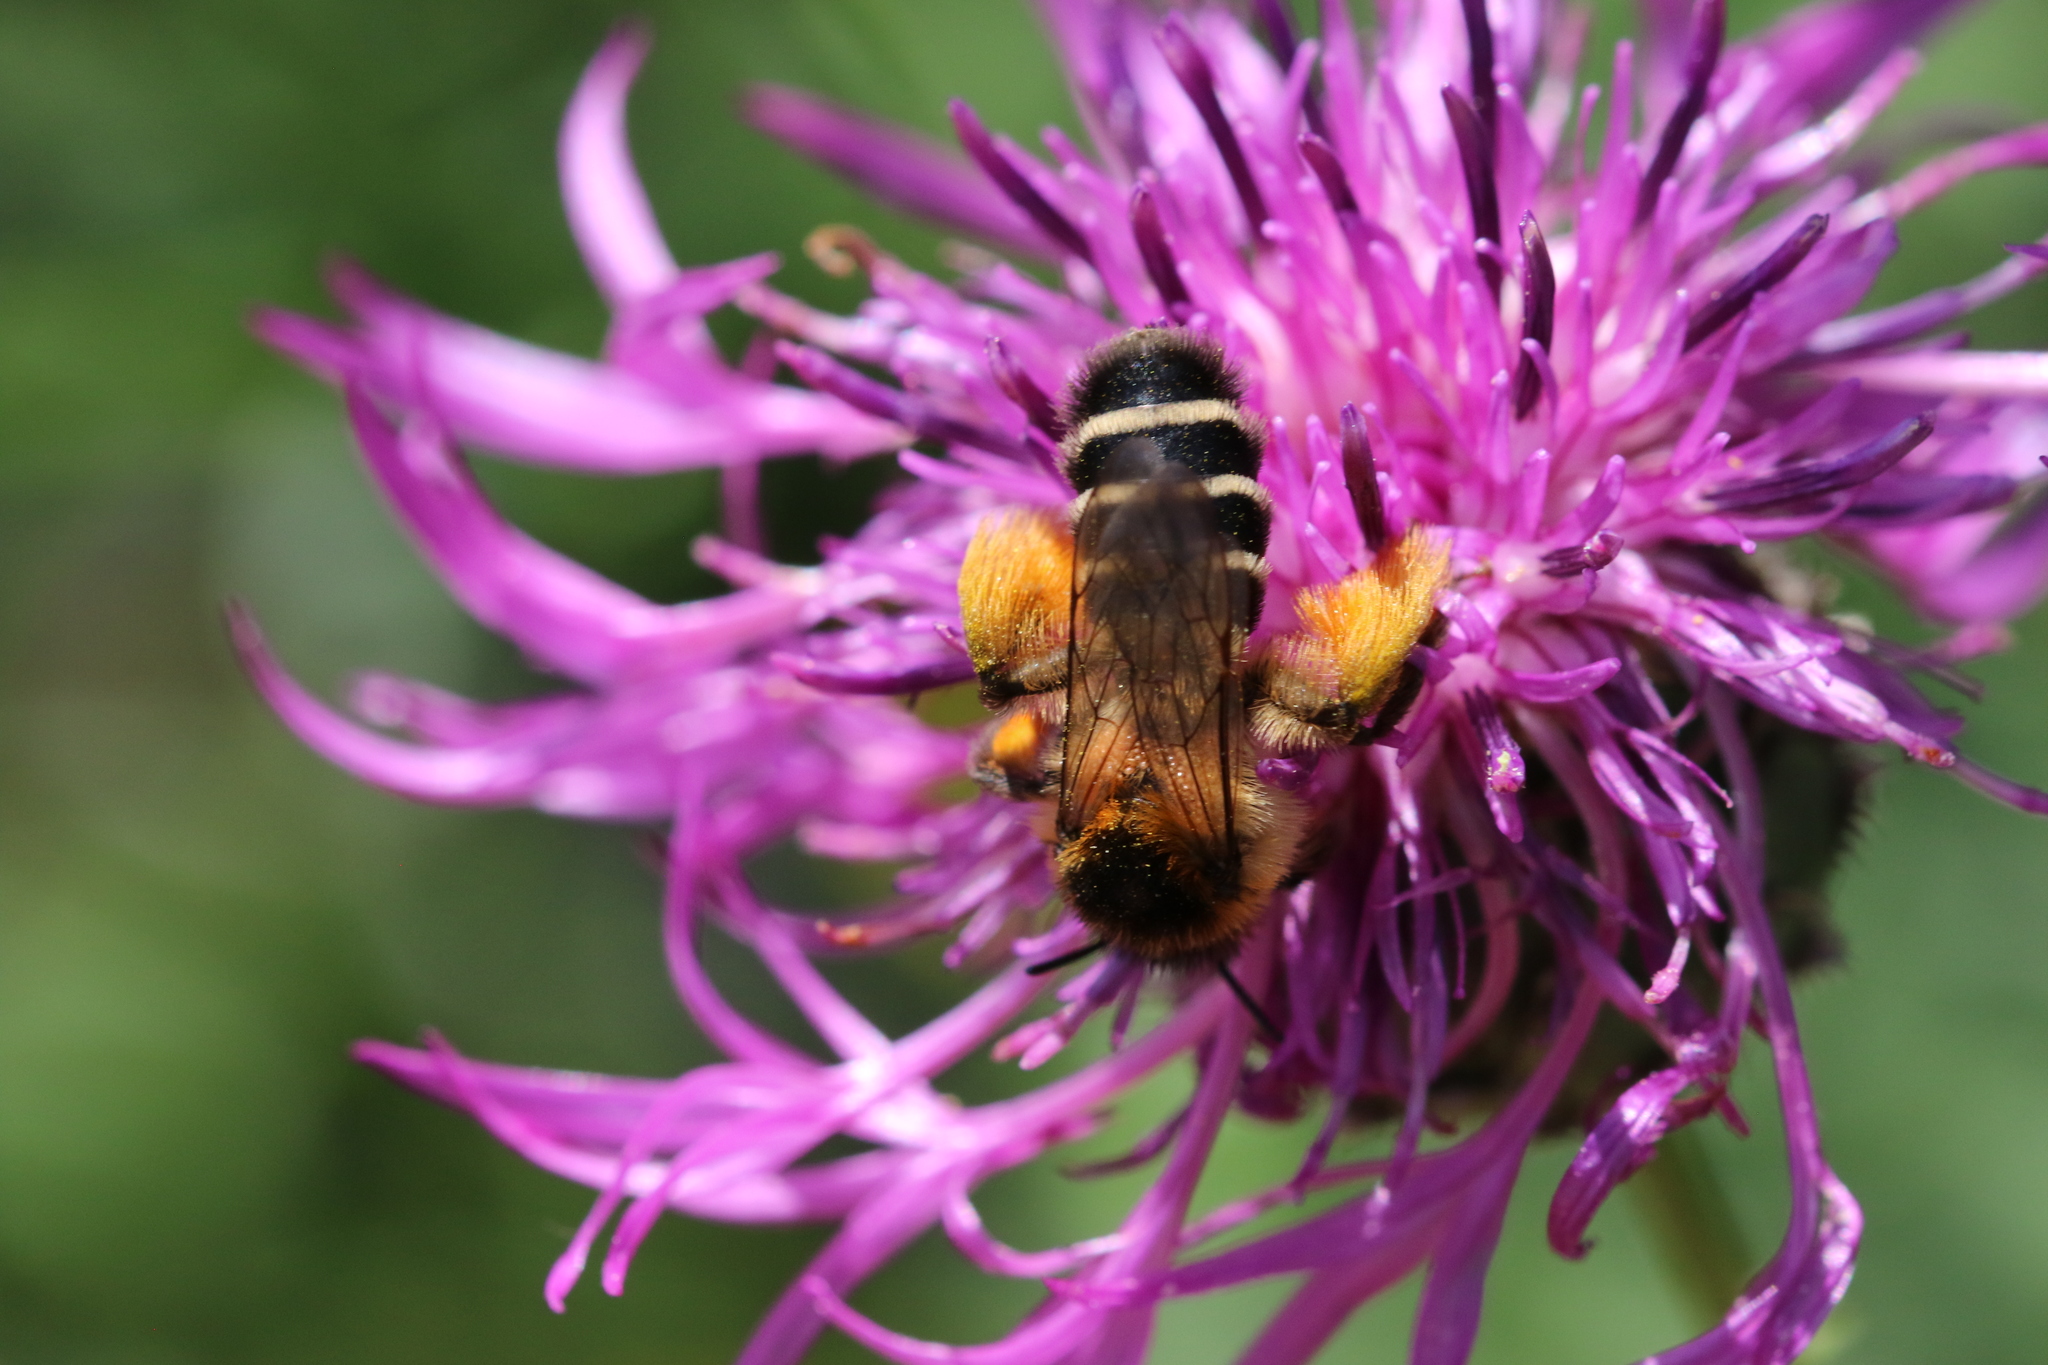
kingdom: Animalia
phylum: Arthropoda
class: Insecta
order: Hymenoptera
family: Melittidae
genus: Dasypoda
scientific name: Dasypoda hirtipes
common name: Pantaloon bee
